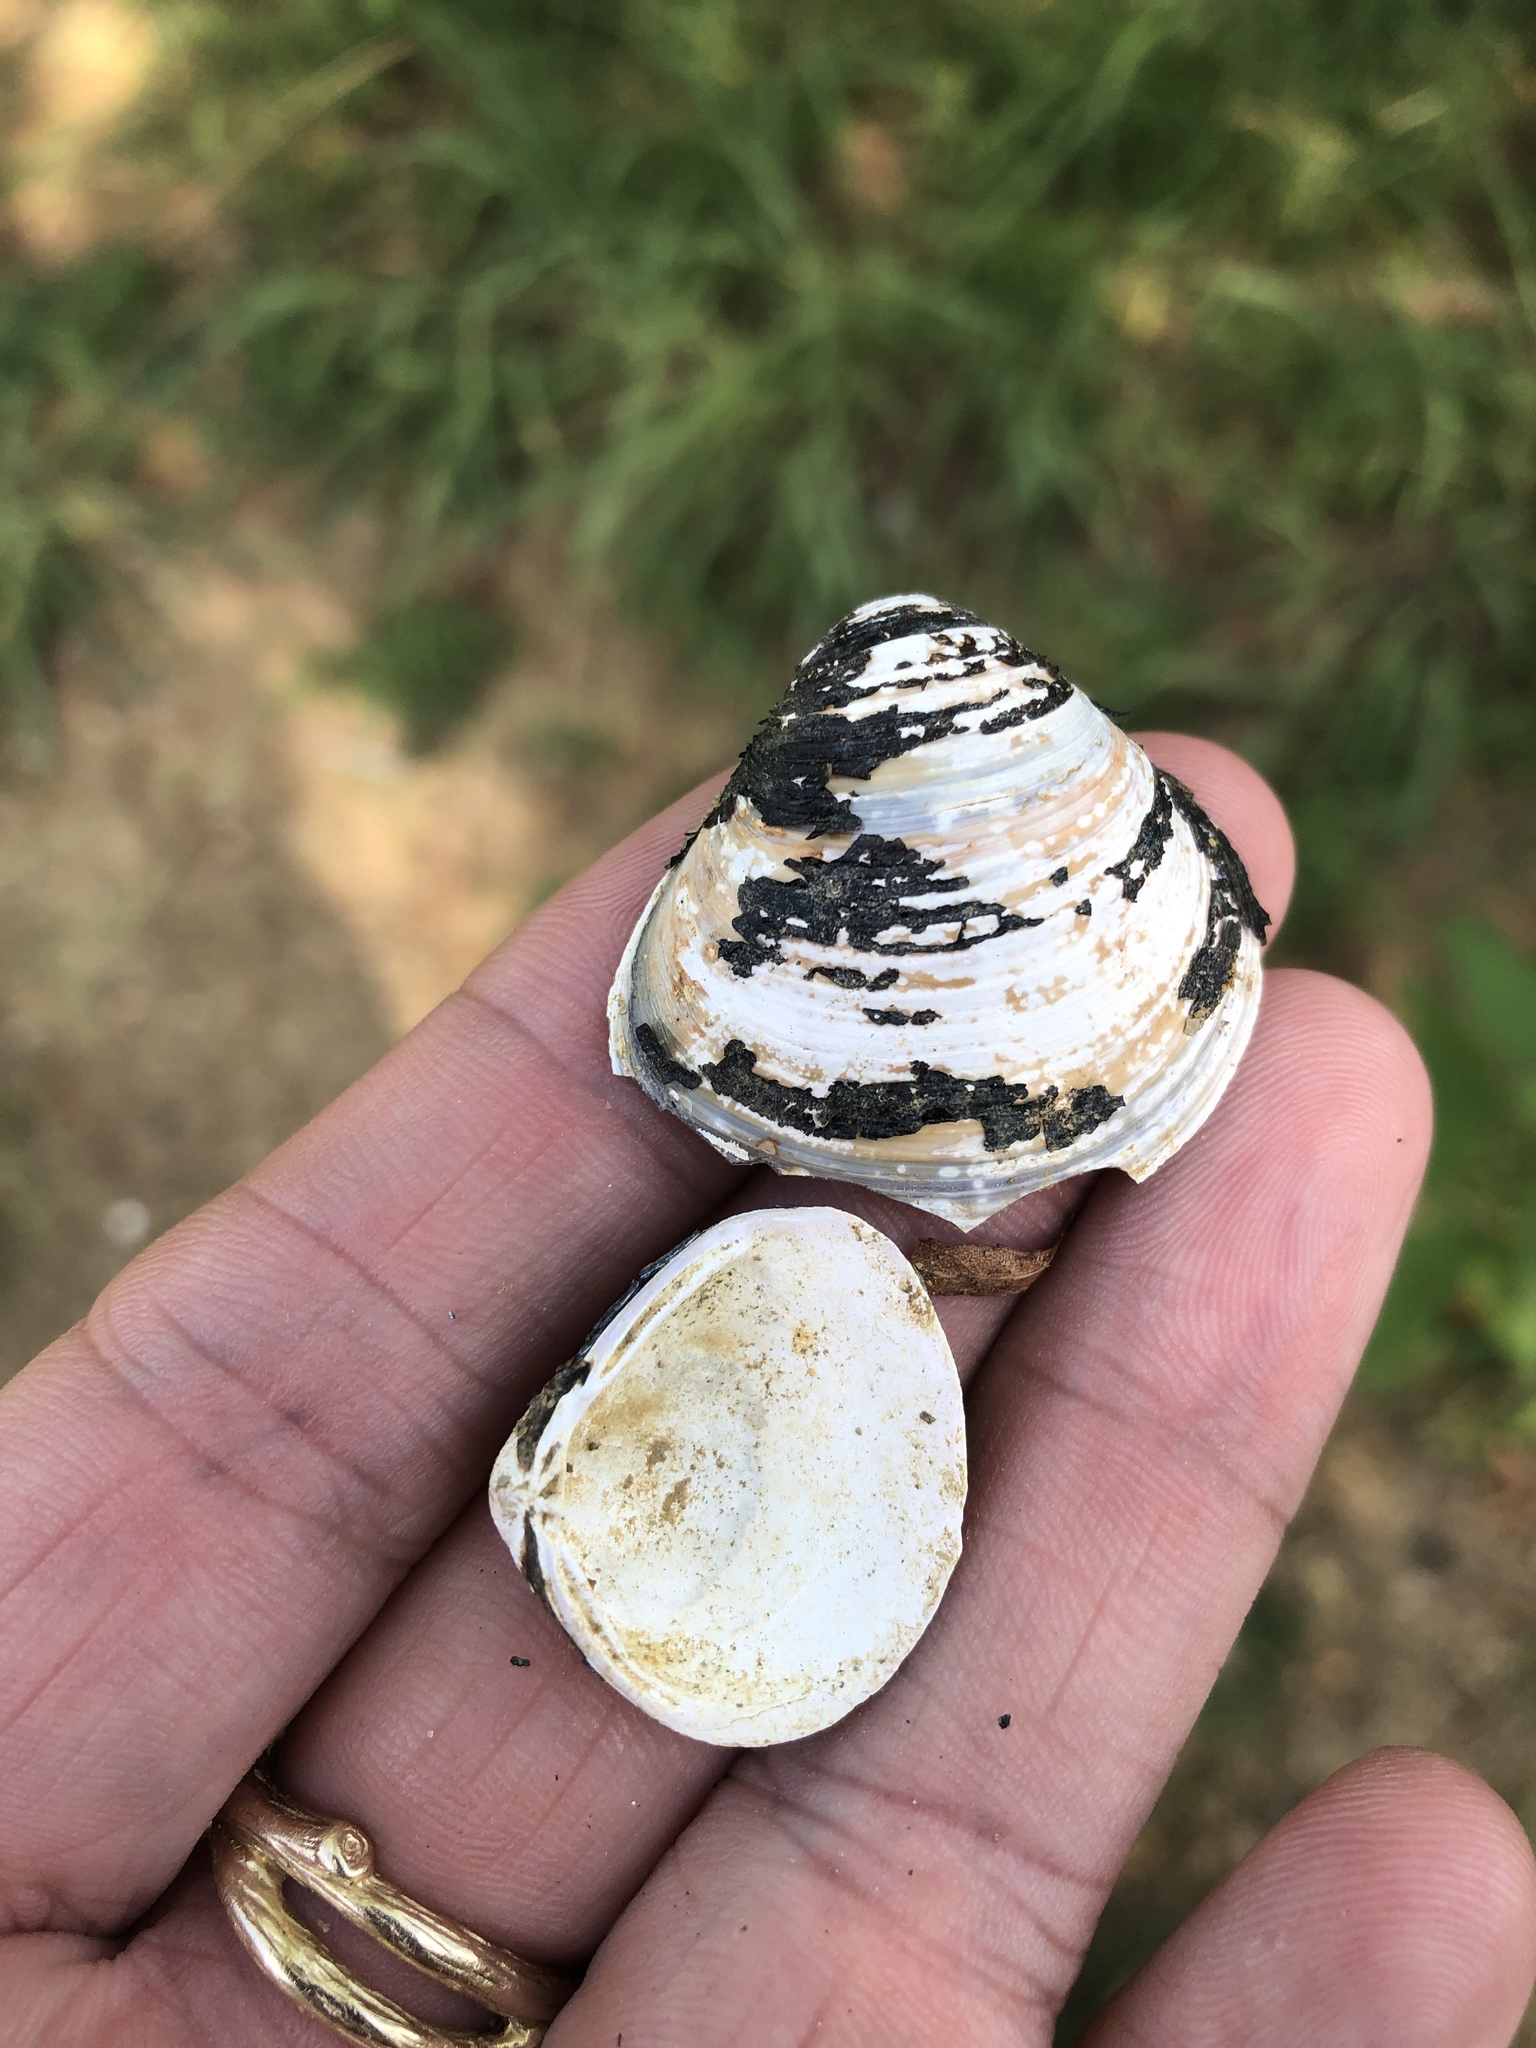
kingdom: Animalia
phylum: Mollusca
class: Bivalvia
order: Venerida
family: Cyrenidae
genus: Corbicula
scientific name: Corbicula fluminea
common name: Asian clam
